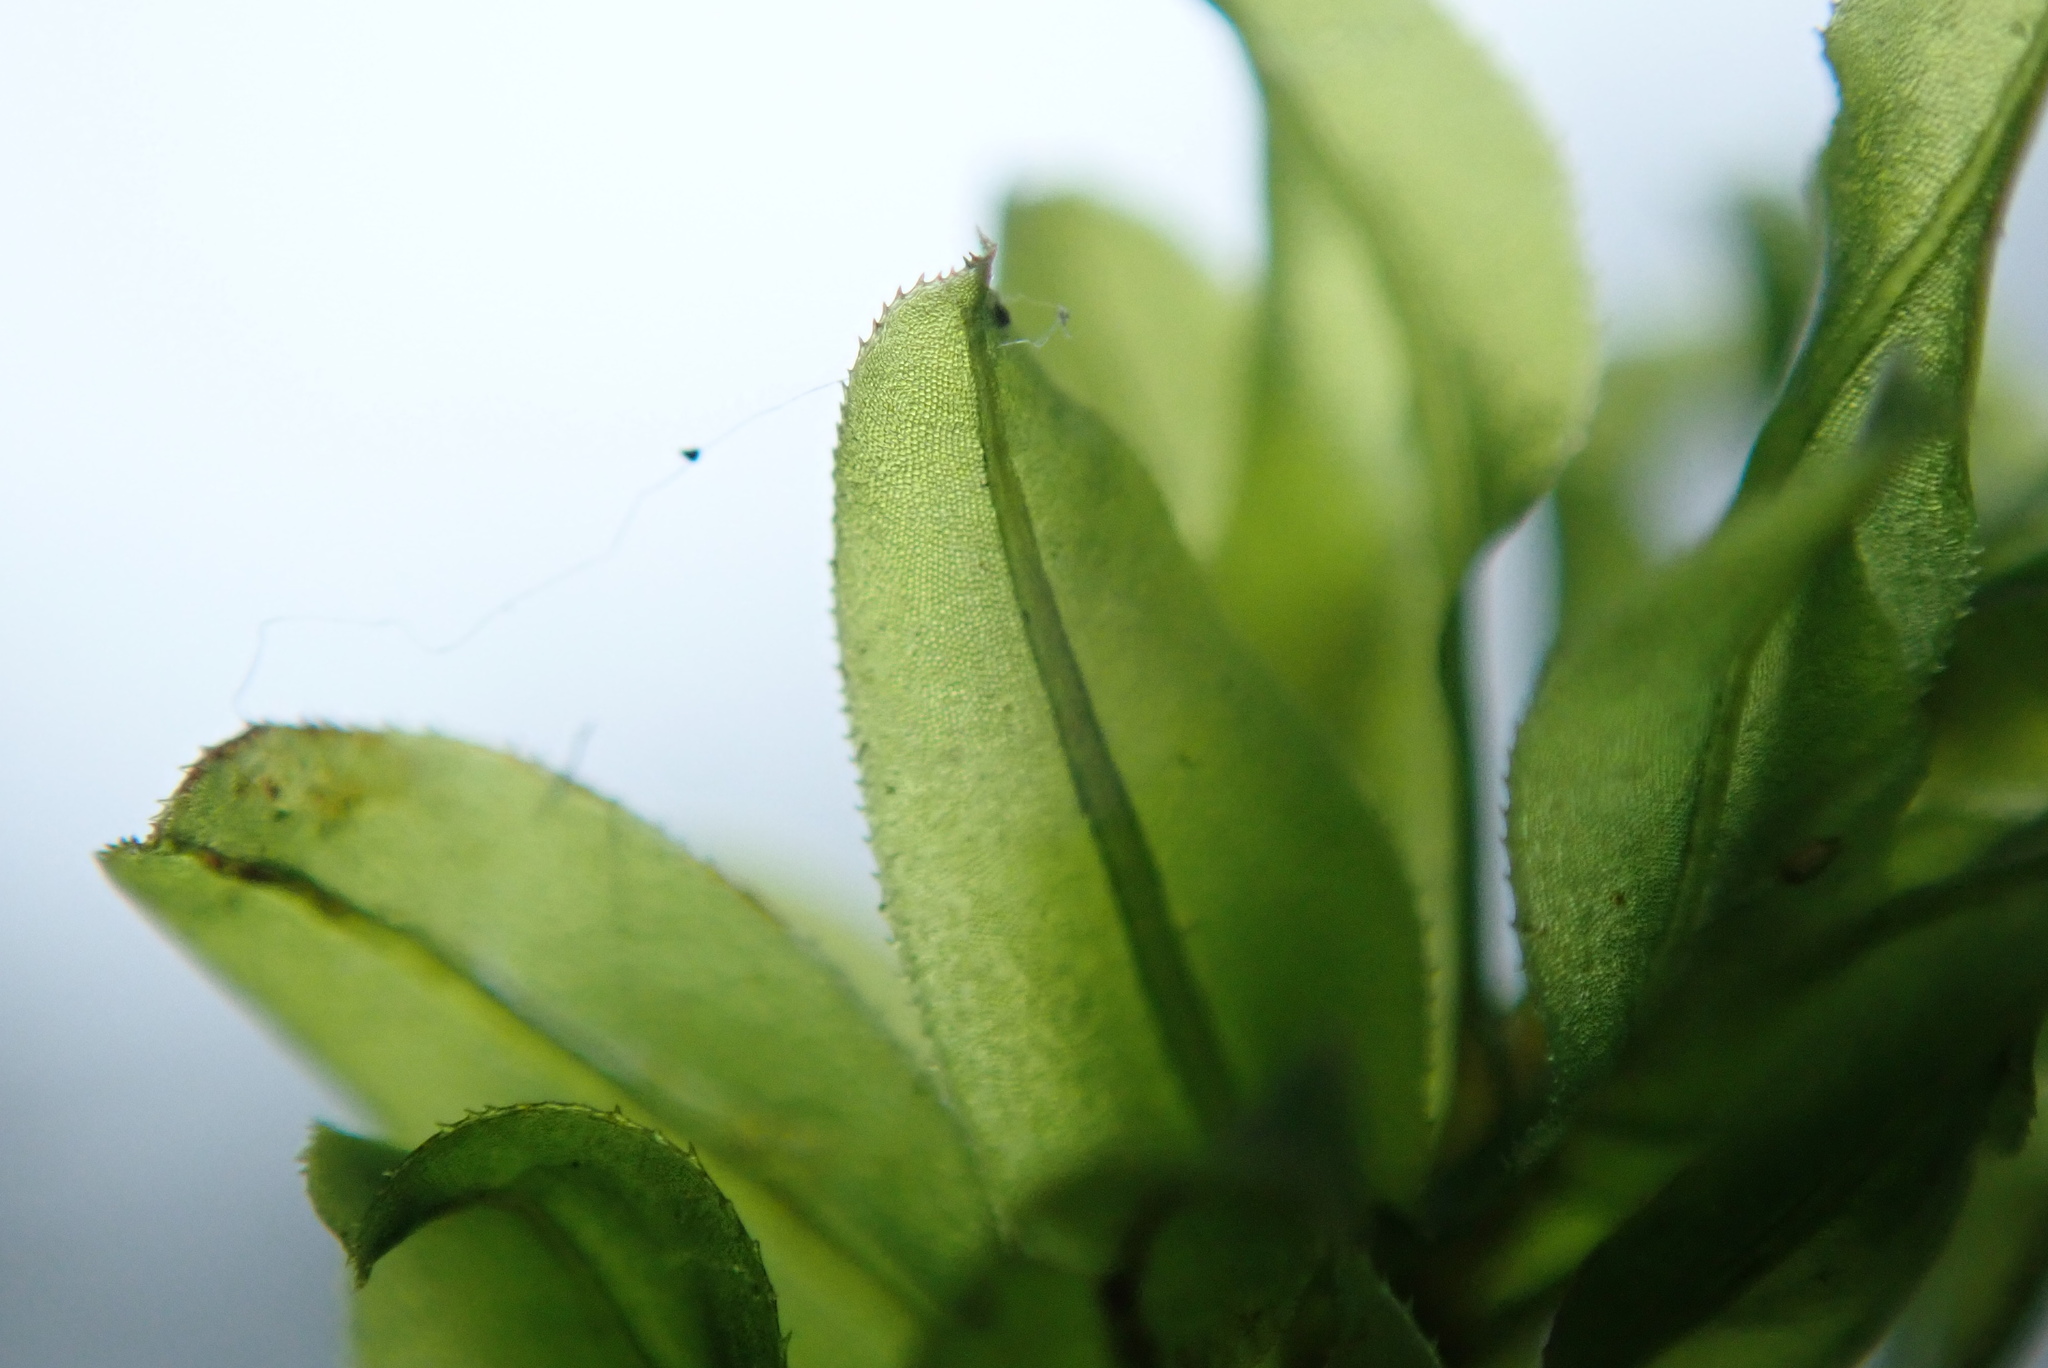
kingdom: Plantae
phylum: Bryophyta
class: Bryopsida
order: Bryales
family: Mniaceae
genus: Plagiomnium
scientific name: Plagiomnium insigne
